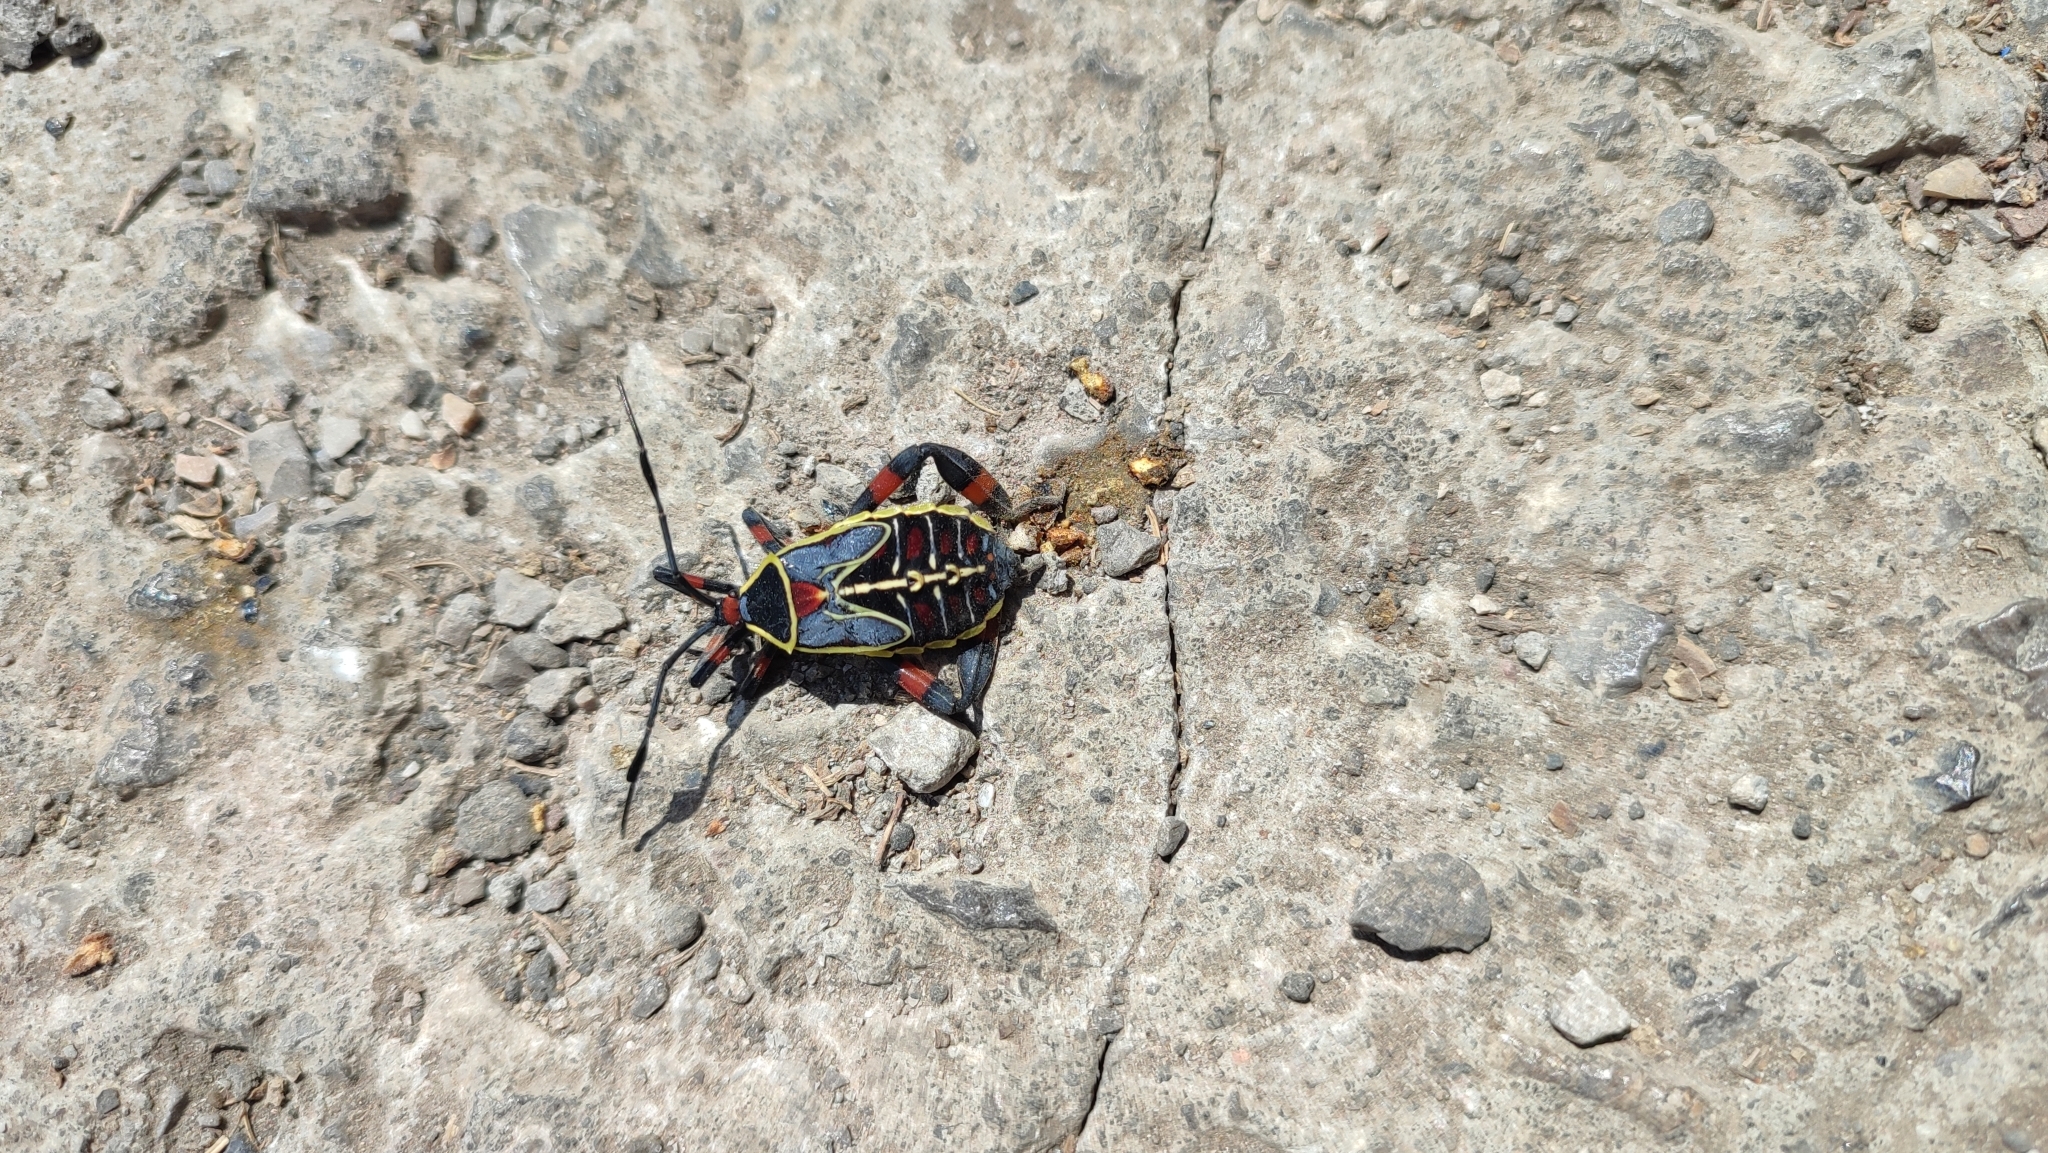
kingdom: Animalia
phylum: Arthropoda
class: Insecta
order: Hemiptera
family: Coreidae
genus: Thasus
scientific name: Thasus acutangulus
